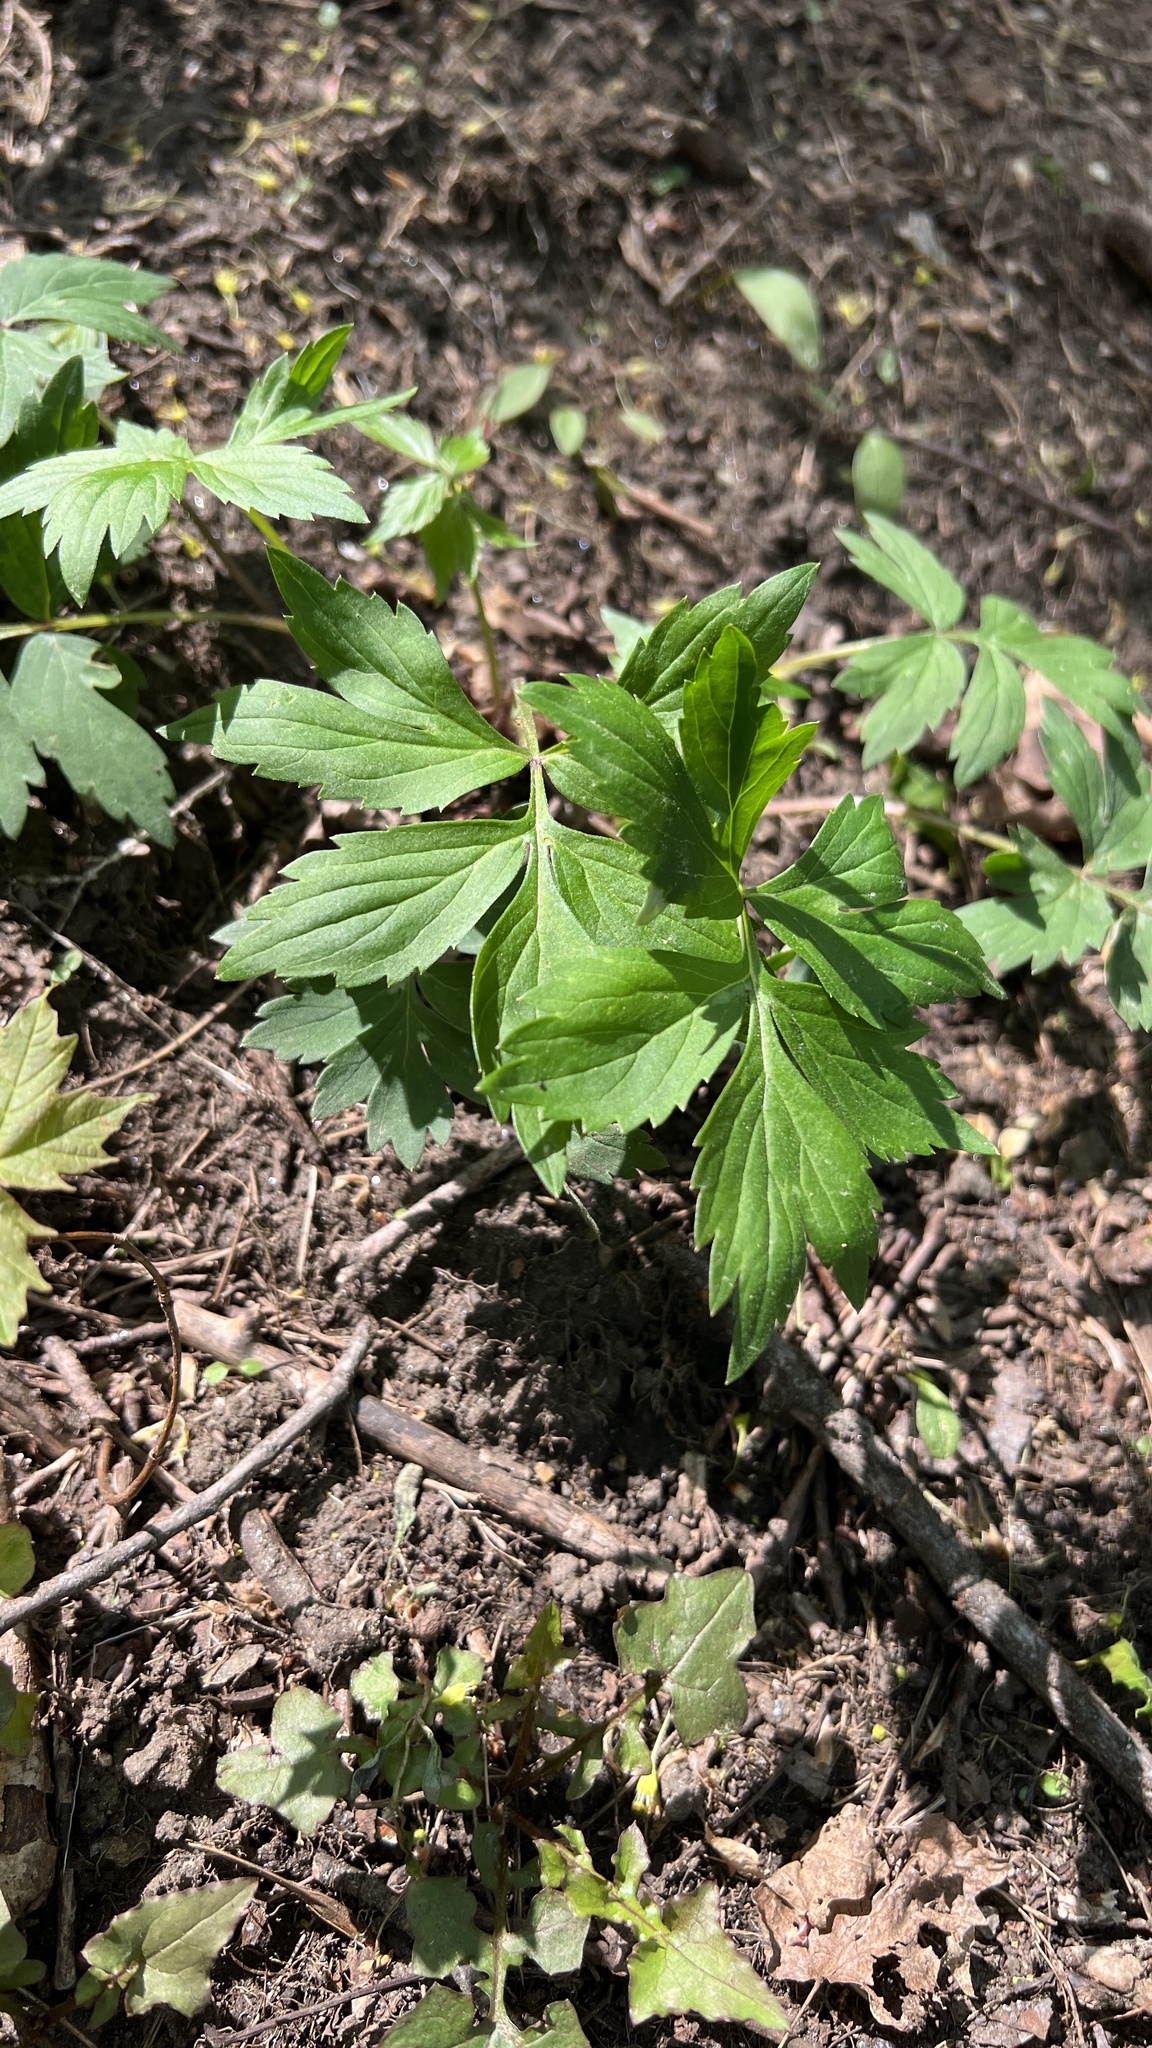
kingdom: Plantae
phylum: Tracheophyta
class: Magnoliopsida
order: Boraginales
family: Hydrophyllaceae
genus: Hydrophyllum
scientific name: Hydrophyllum virginianum
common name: Virginia waterleaf
